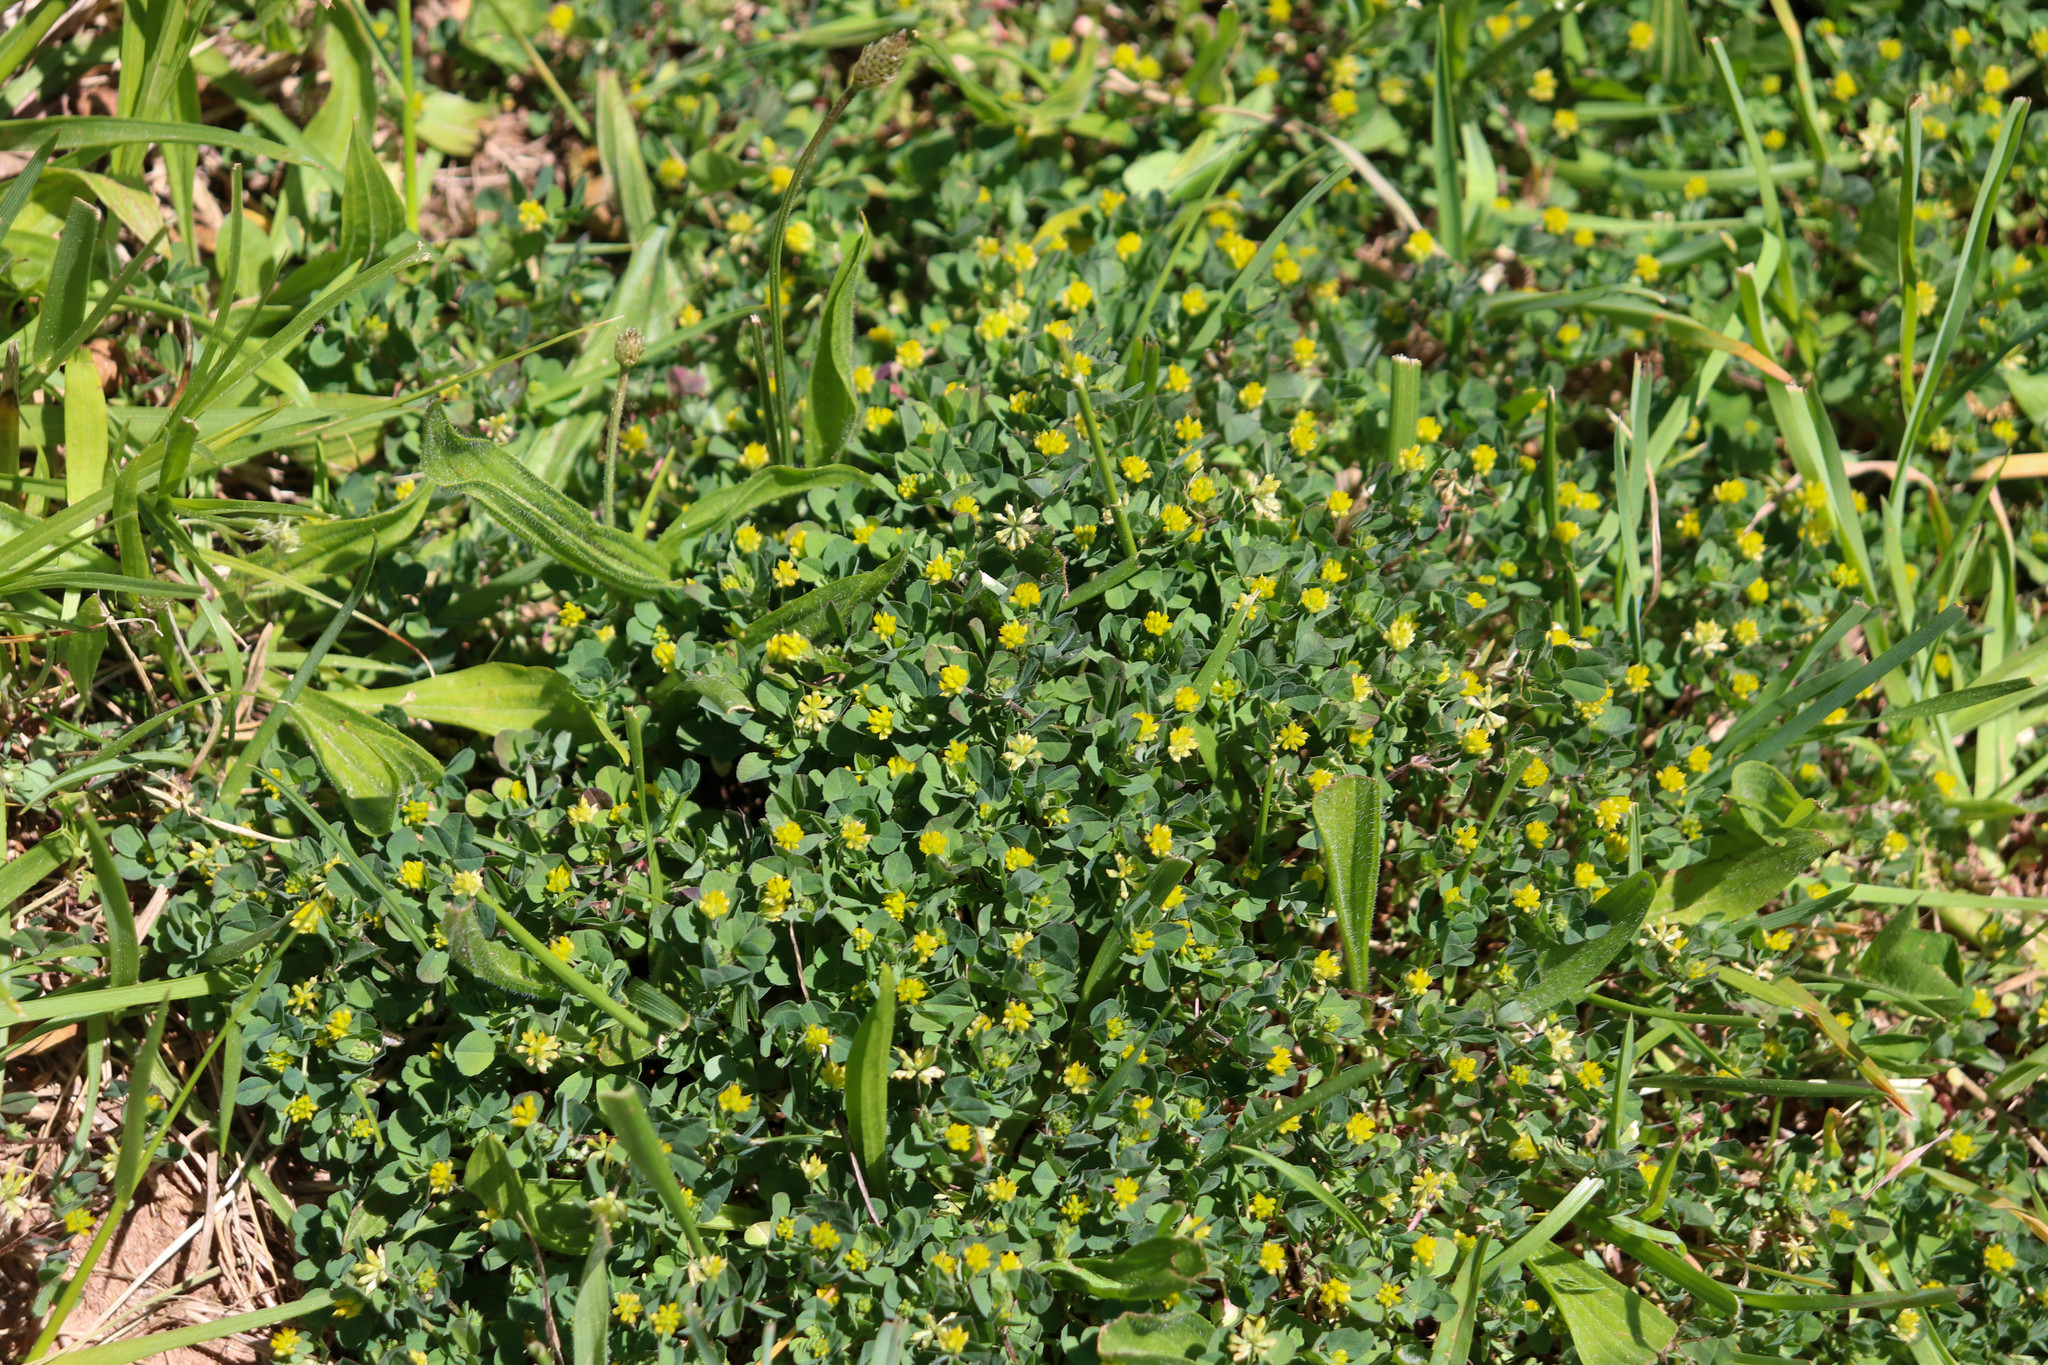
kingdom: Plantae
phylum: Tracheophyta
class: Magnoliopsida
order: Fabales
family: Fabaceae
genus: Trifolium
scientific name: Trifolium dubium
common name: Suckling clover
